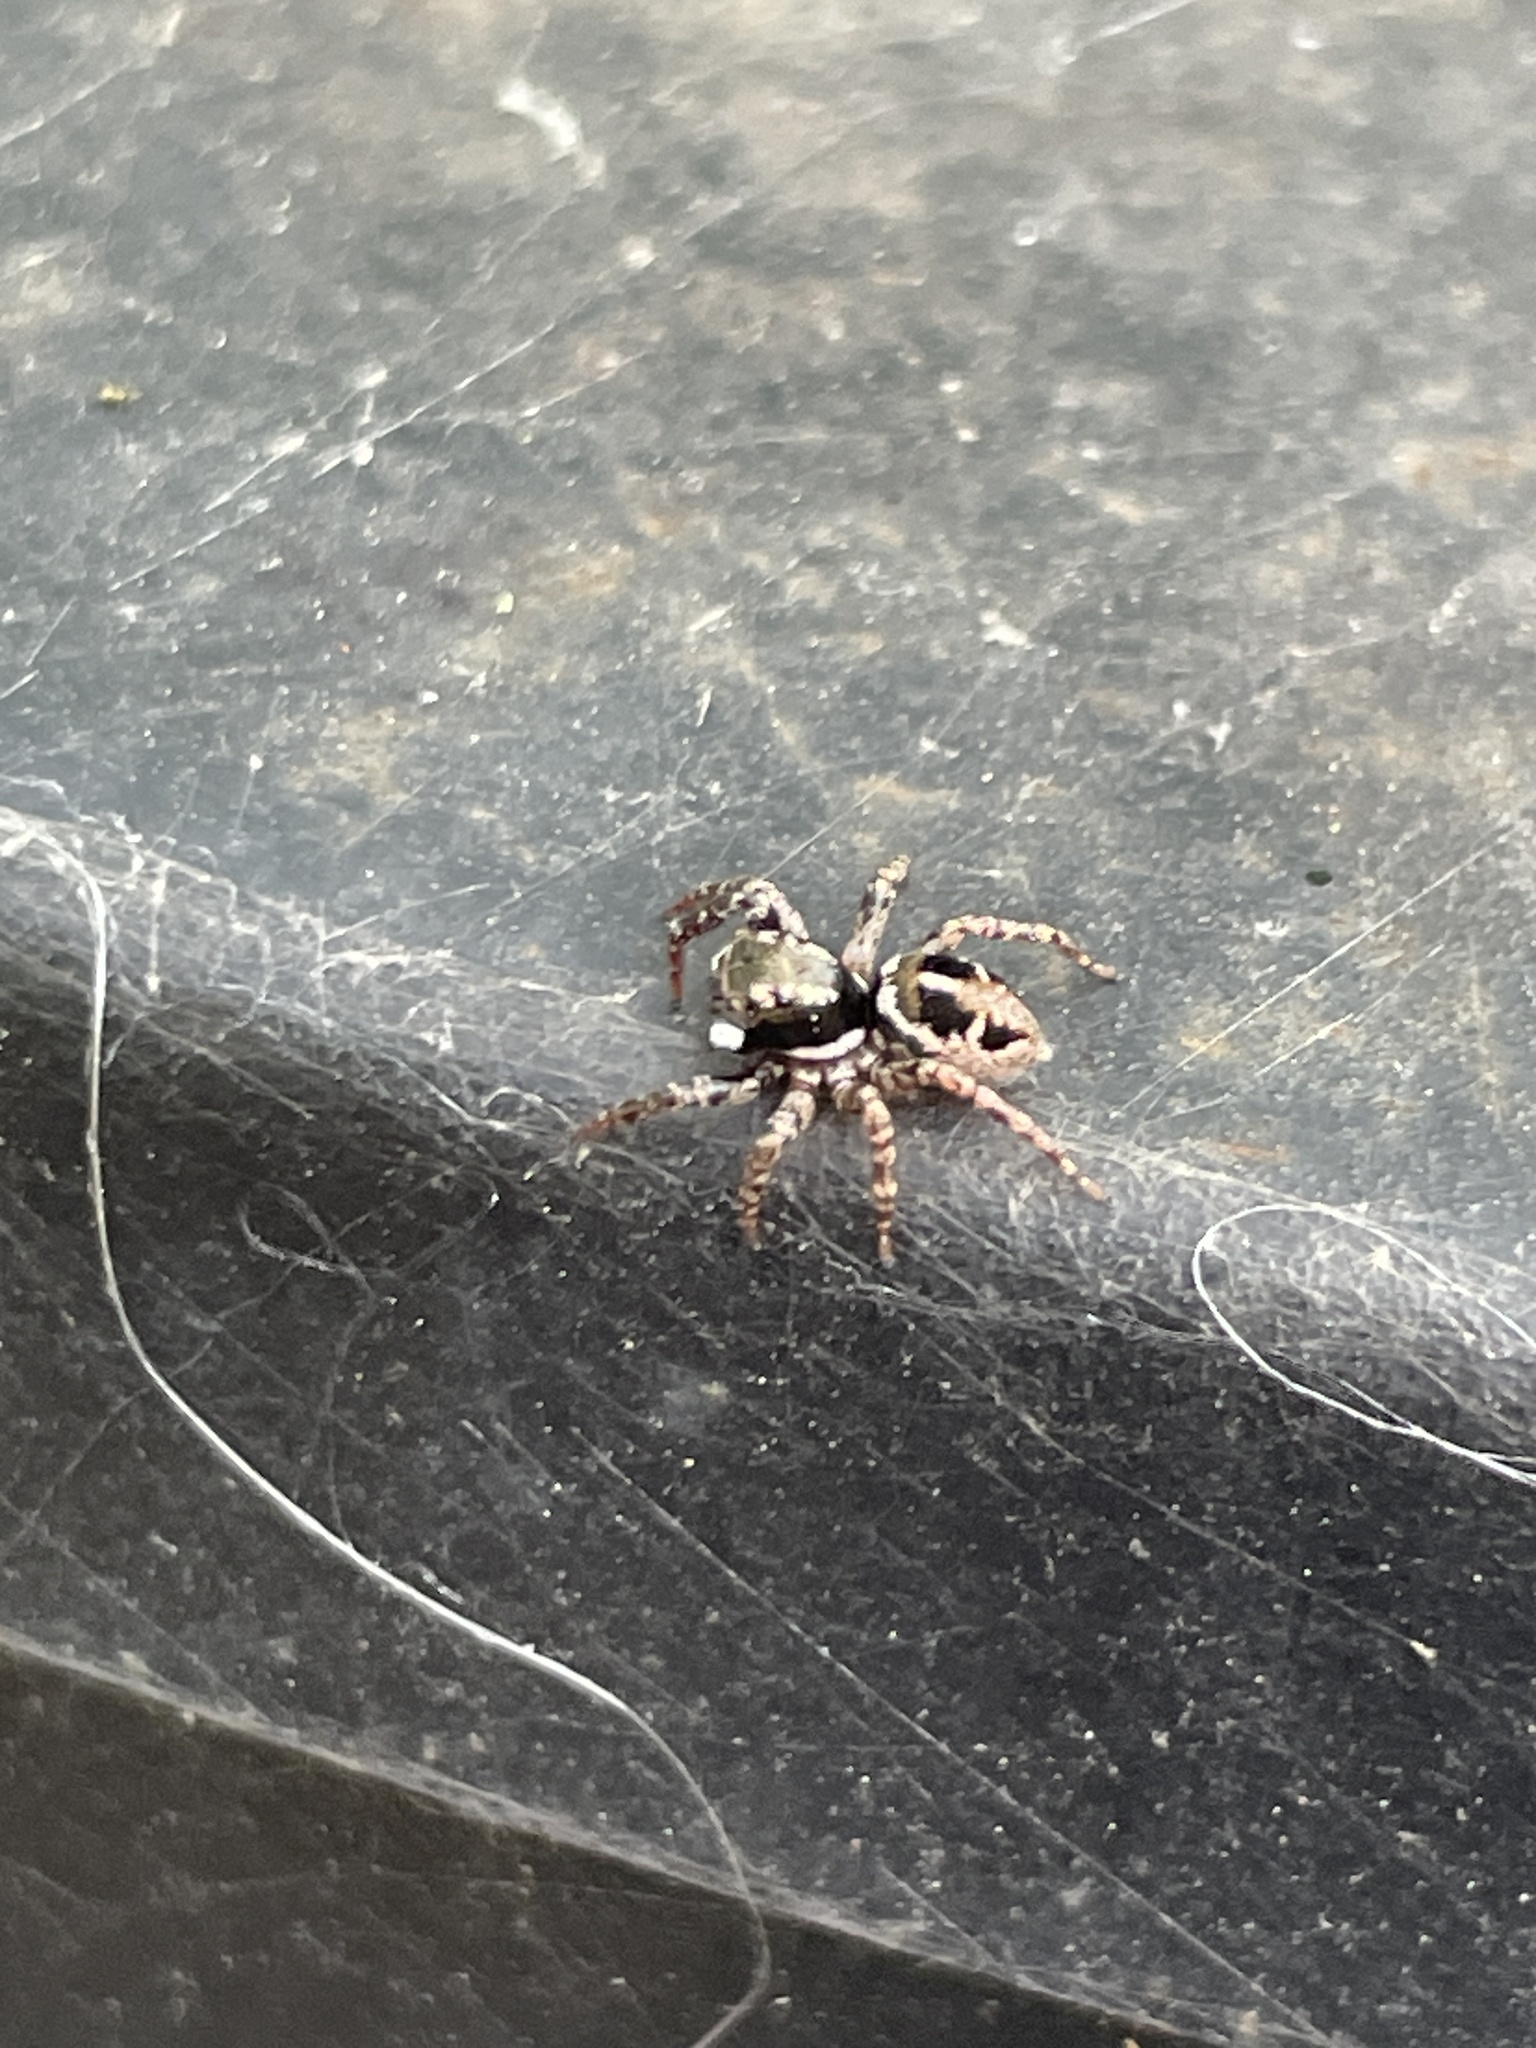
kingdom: Animalia
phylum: Arthropoda
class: Arachnida
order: Araneae
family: Salticidae
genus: Anasaitis
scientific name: Anasaitis canosa
